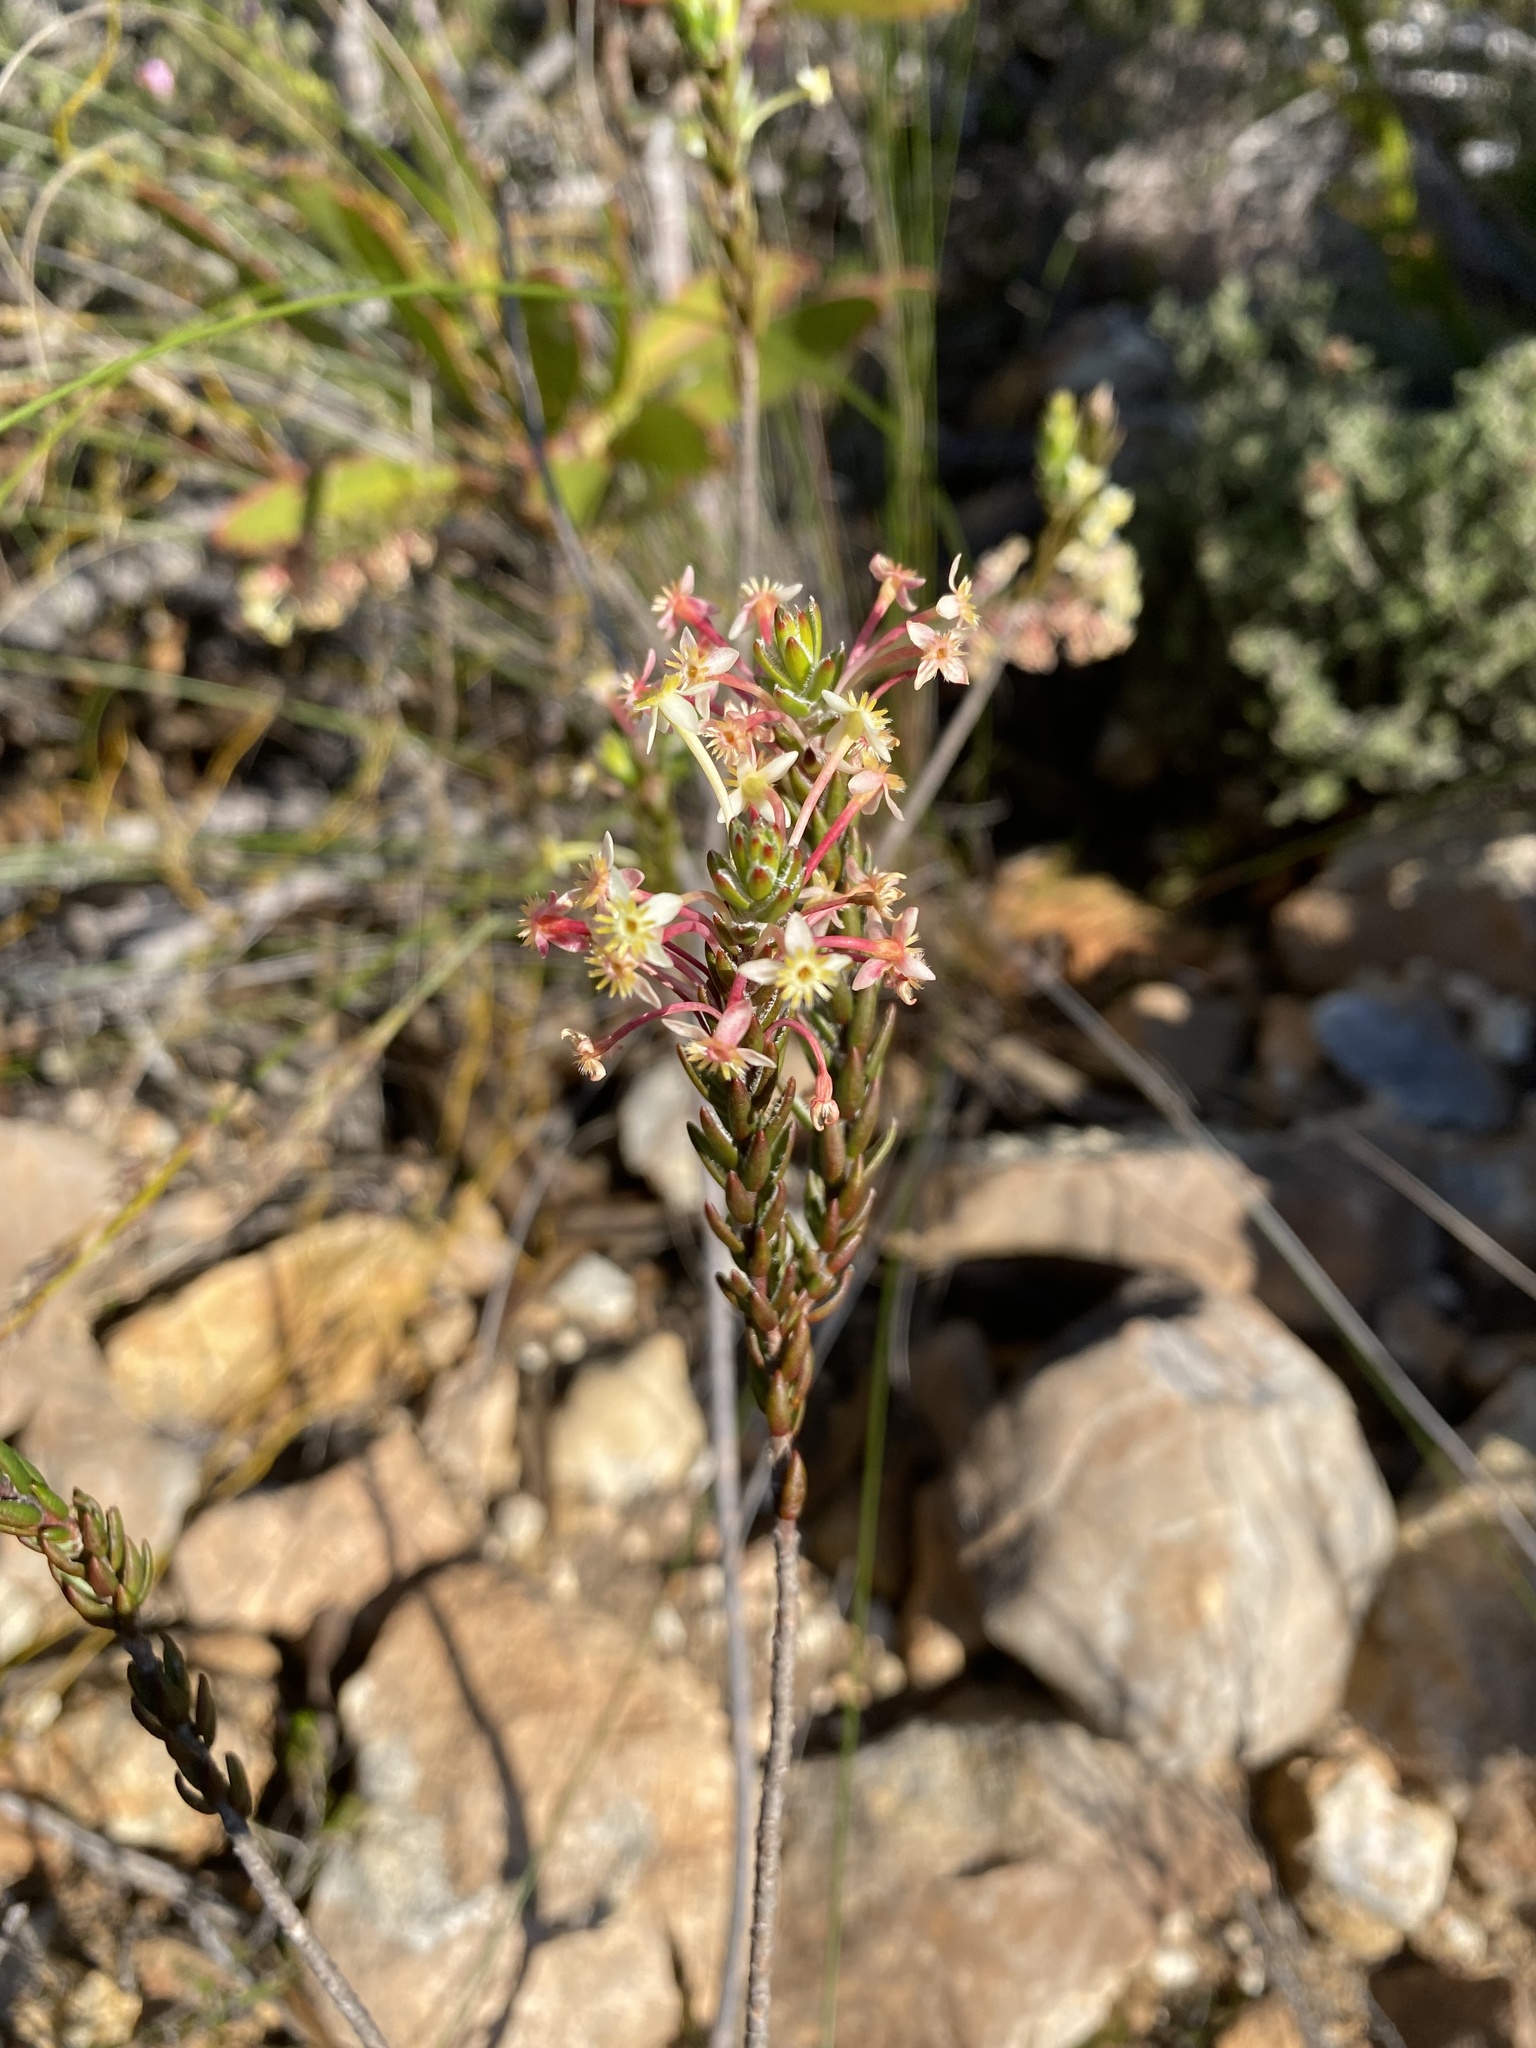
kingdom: Plantae
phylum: Tracheophyta
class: Magnoliopsida
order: Malvales
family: Thymelaeaceae
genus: Struthiola
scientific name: Struthiola rigida
